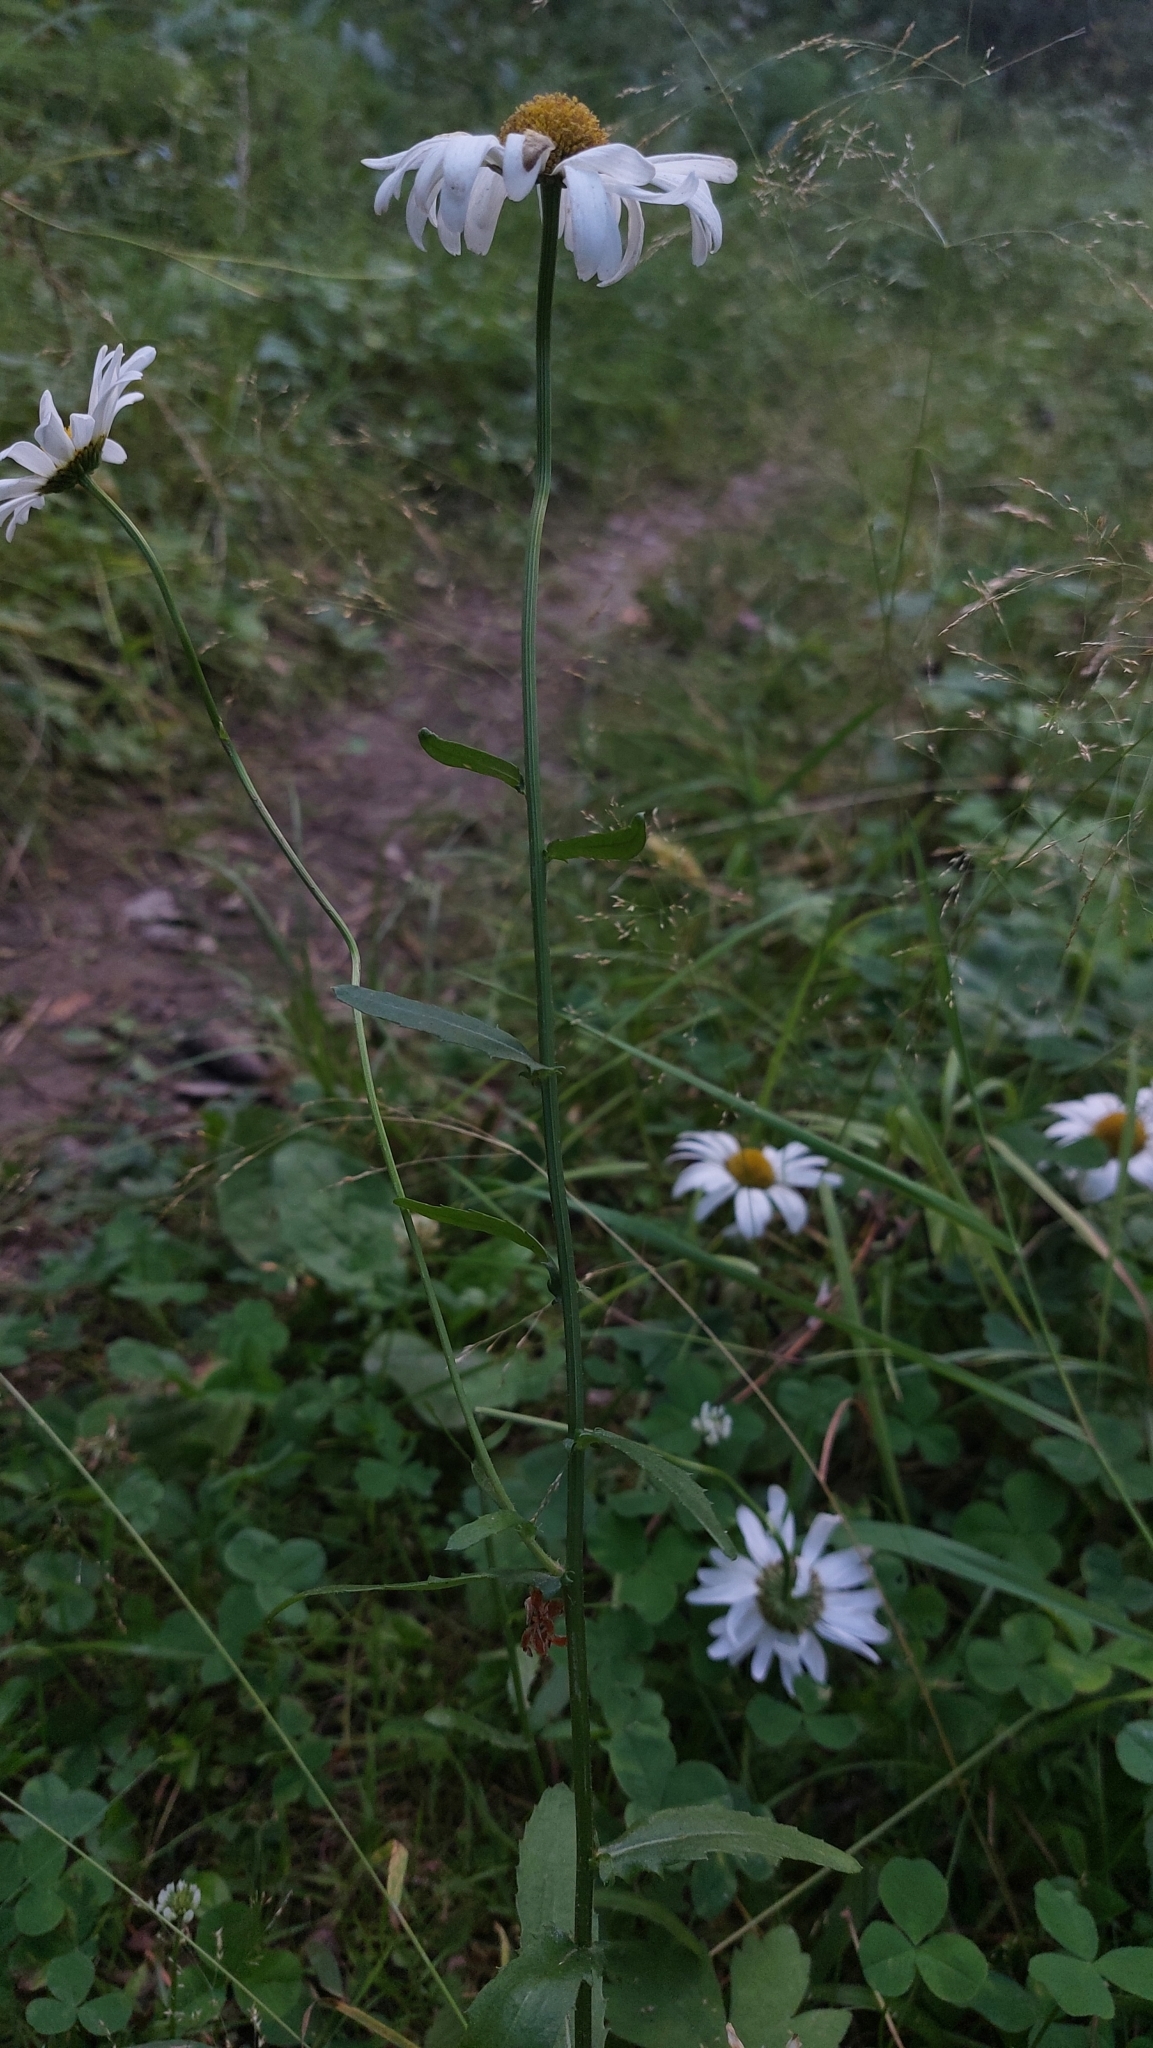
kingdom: Plantae
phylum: Tracheophyta
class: Magnoliopsida
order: Asterales
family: Asteraceae
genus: Leucanthemum
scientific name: Leucanthemum vulgare
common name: Oxeye daisy
